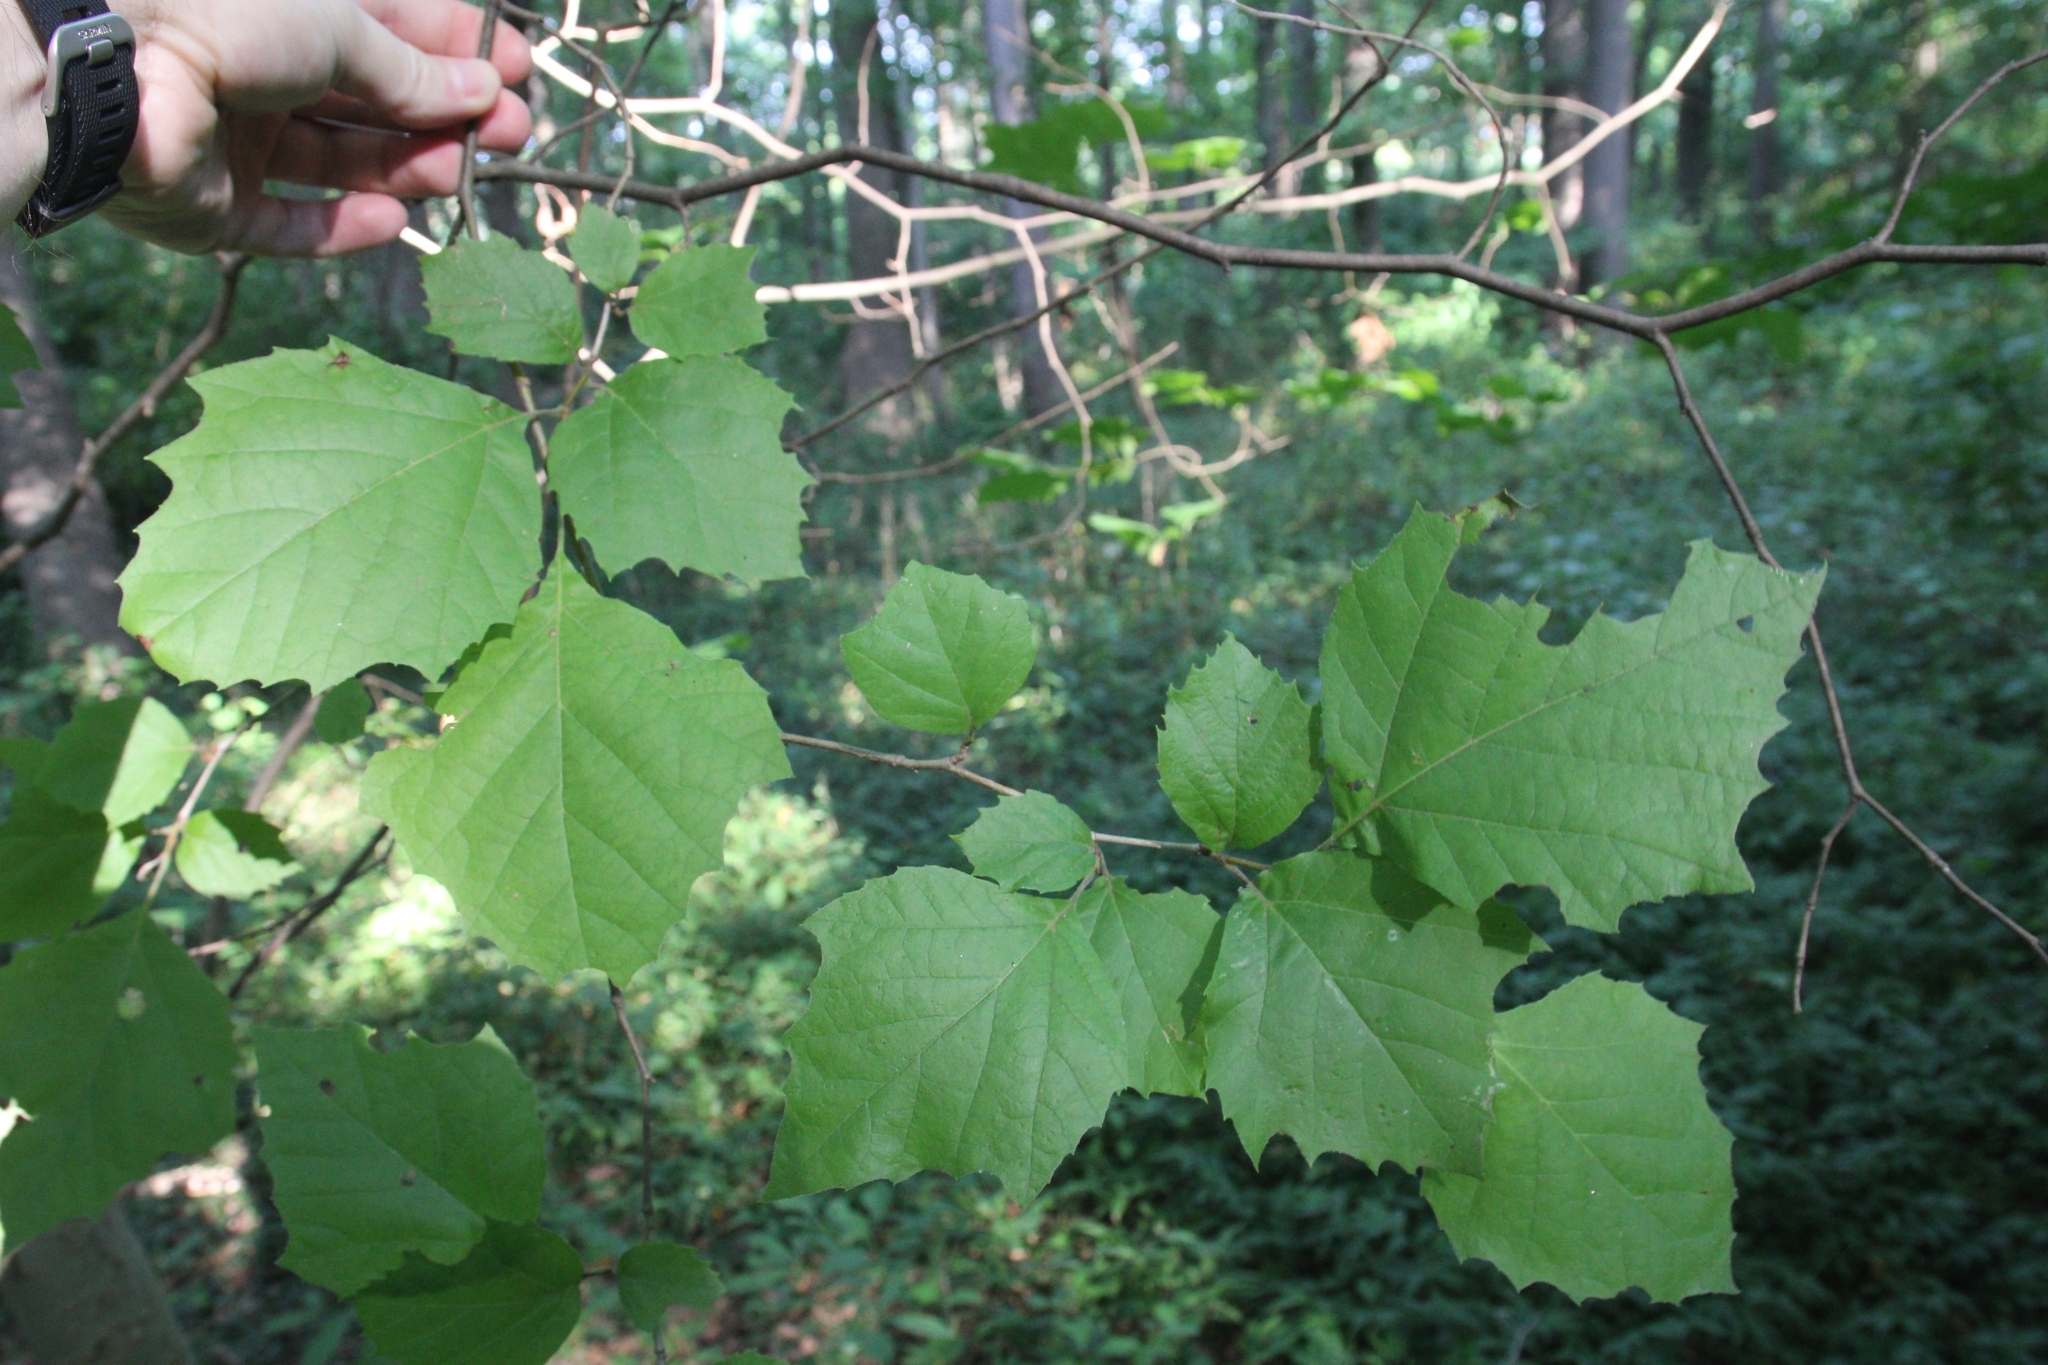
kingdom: Plantae
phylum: Tracheophyta
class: Magnoliopsida
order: Proteales
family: Platanaceae
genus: Platanus
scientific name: Platanus occidentalis
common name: American sycamore
